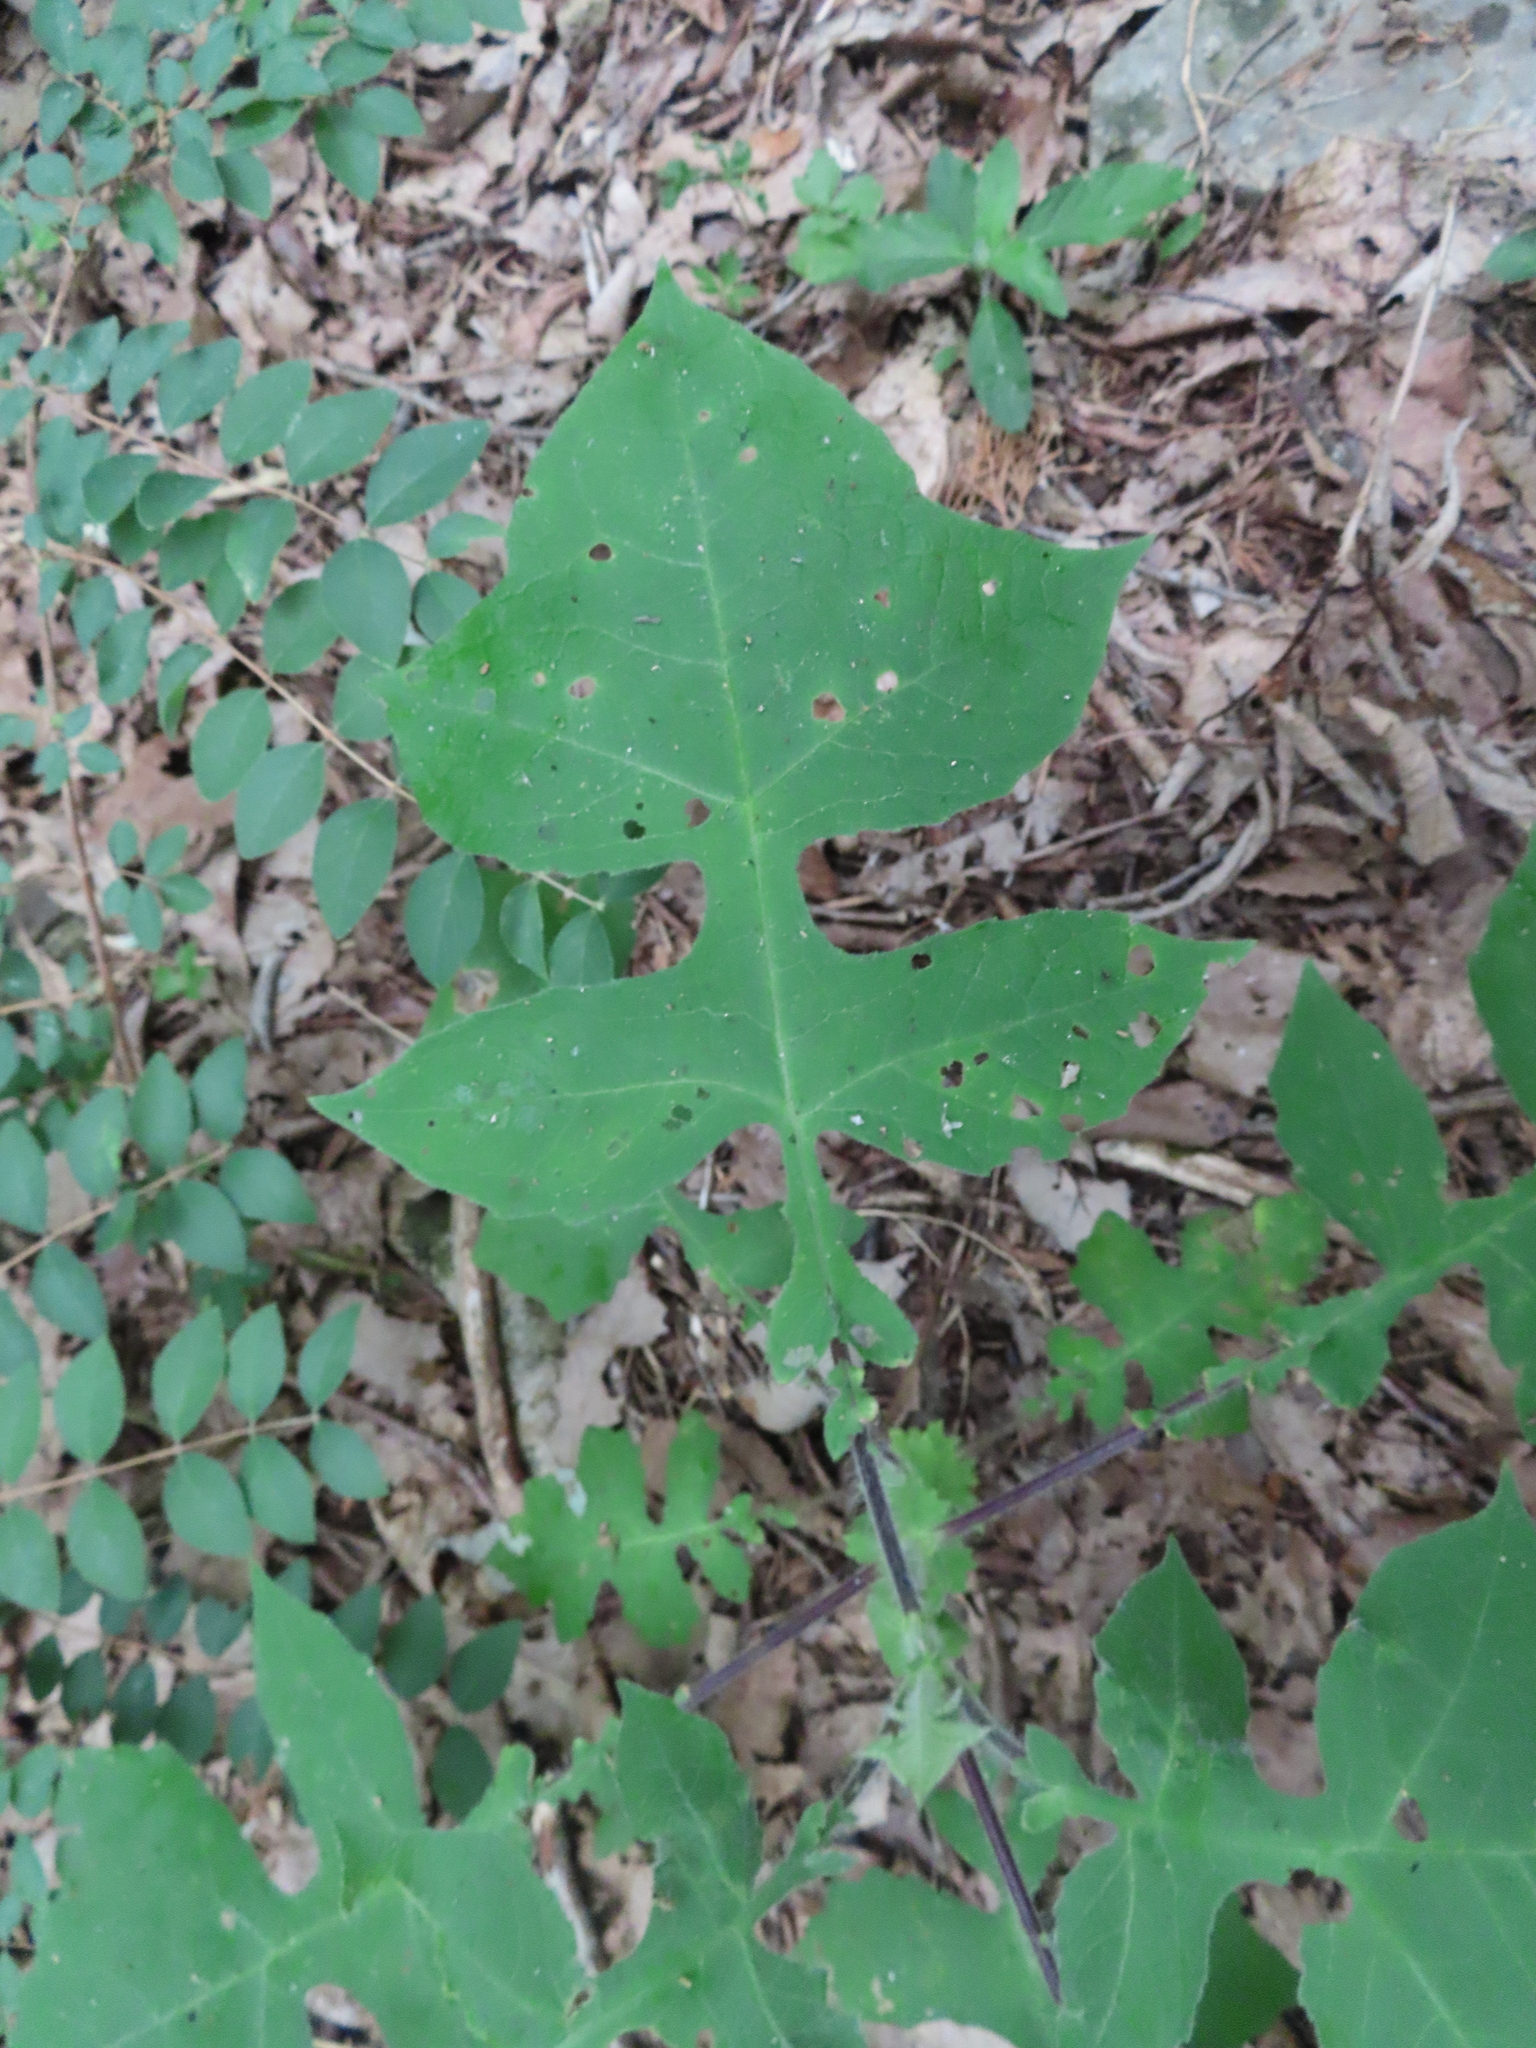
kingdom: Plantae
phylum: Tracheophyta
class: Magnoliopsida
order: Asterales
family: Asteraceae
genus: Polymnia
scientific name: Polymnia canadensis
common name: Pale-flowered leafcup
